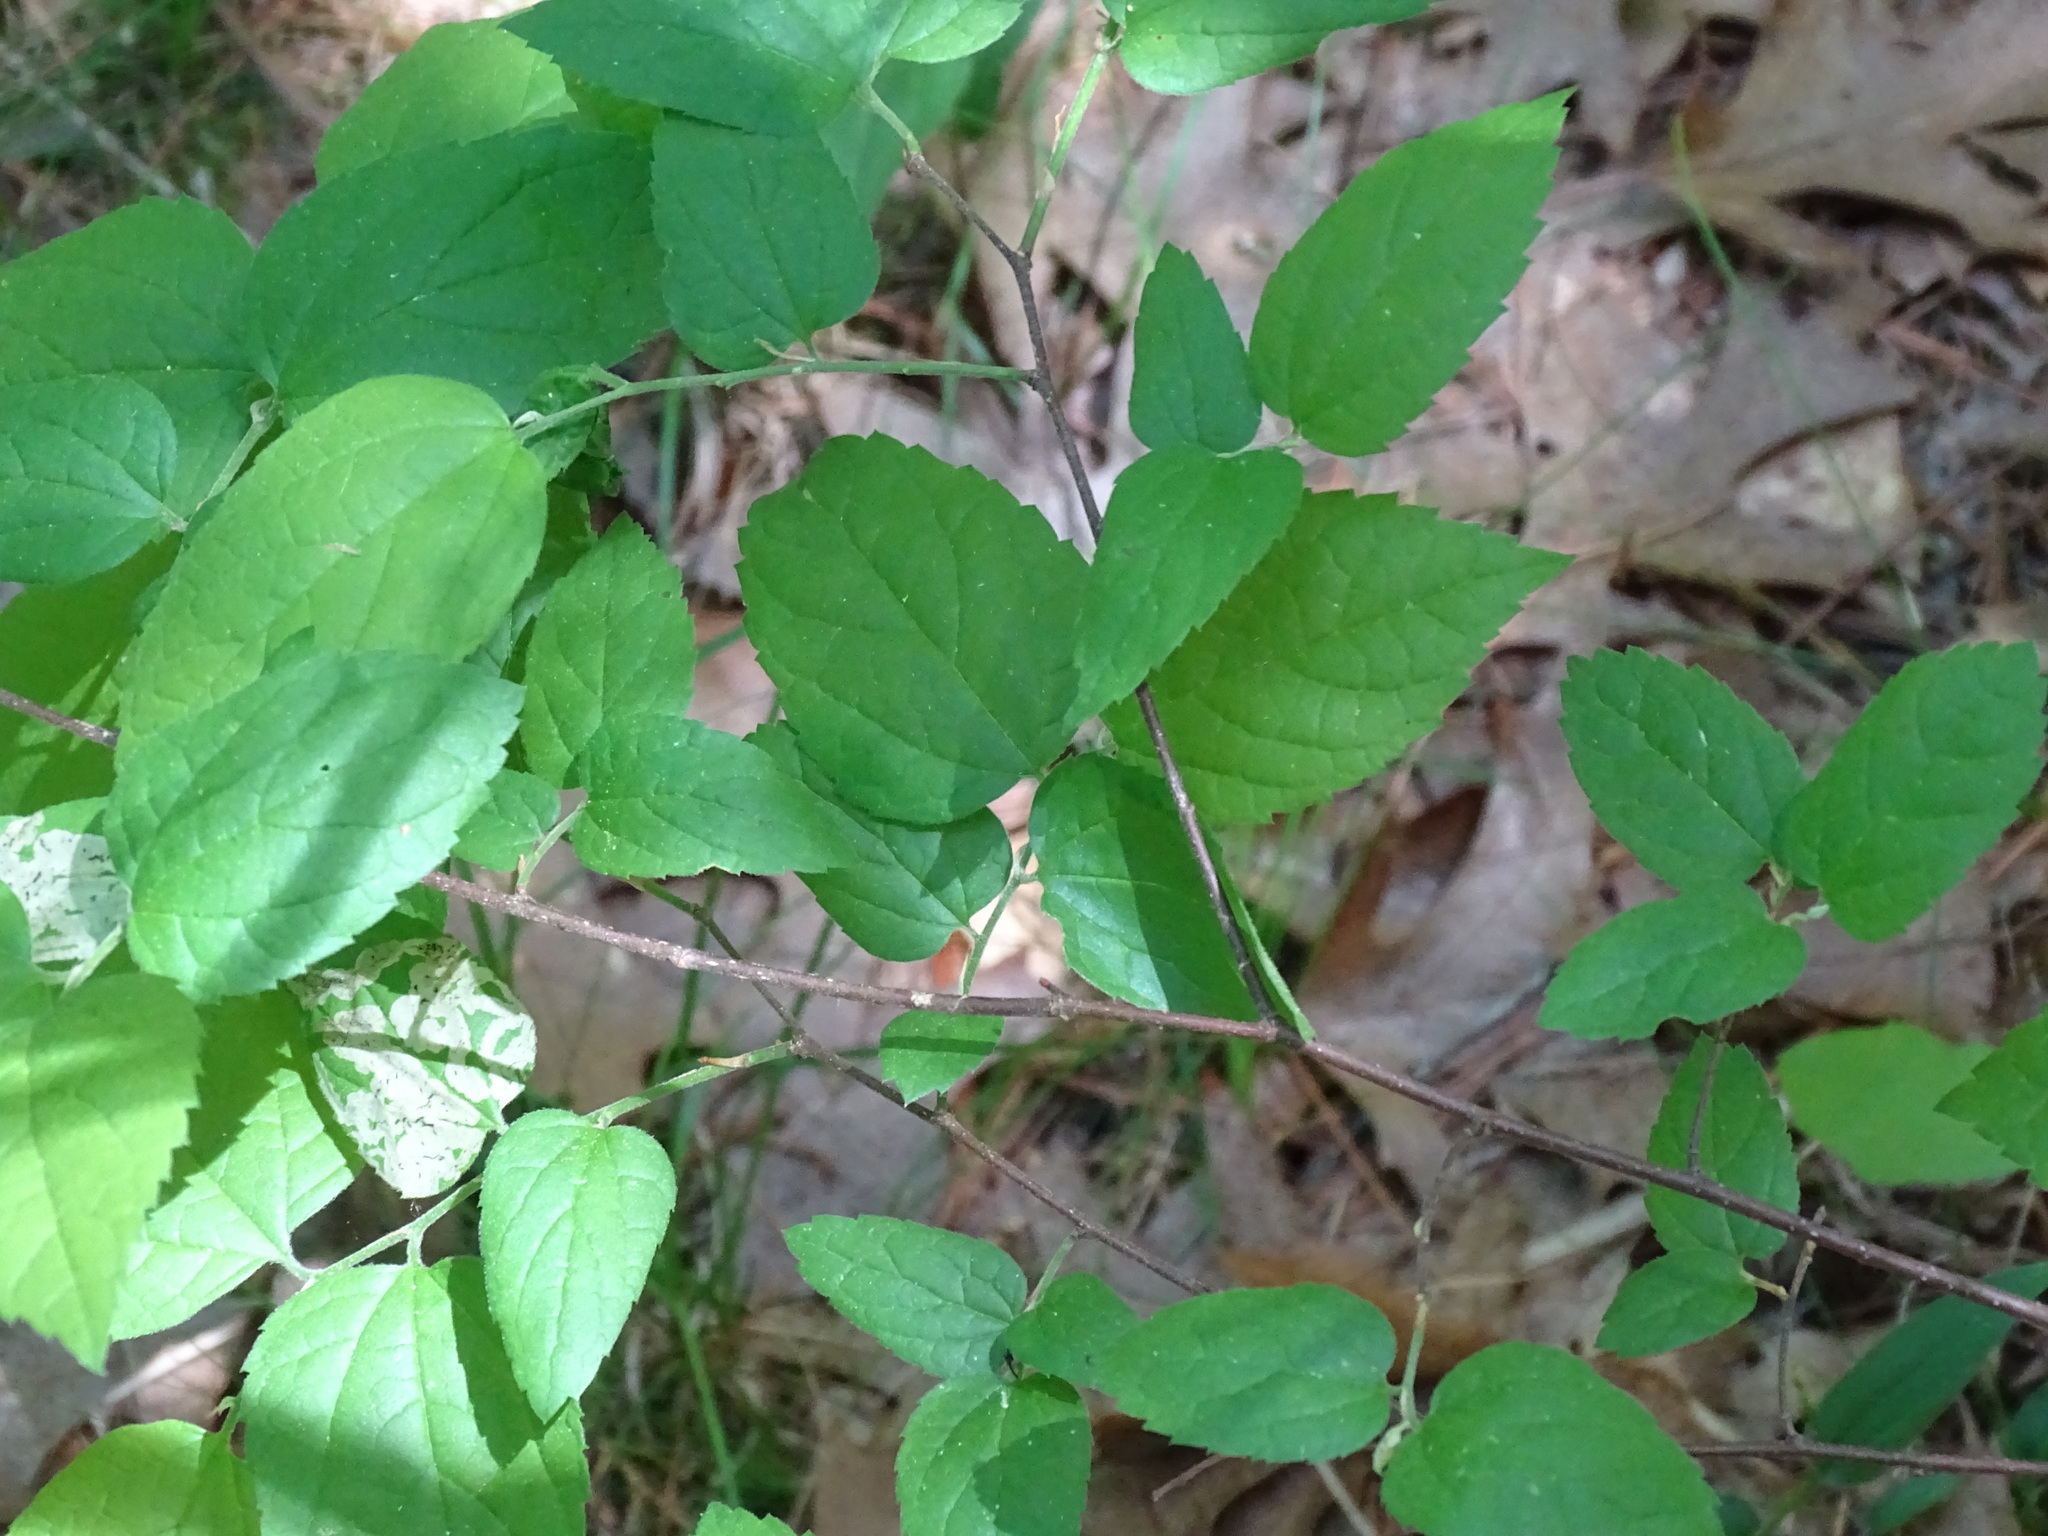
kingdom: Plantae
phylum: Tracheophyta
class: Magnoliopsida
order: Rosales
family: Cannabaceae
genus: Celtis
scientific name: Celtis tenuifolia
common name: Georgia hackberry
